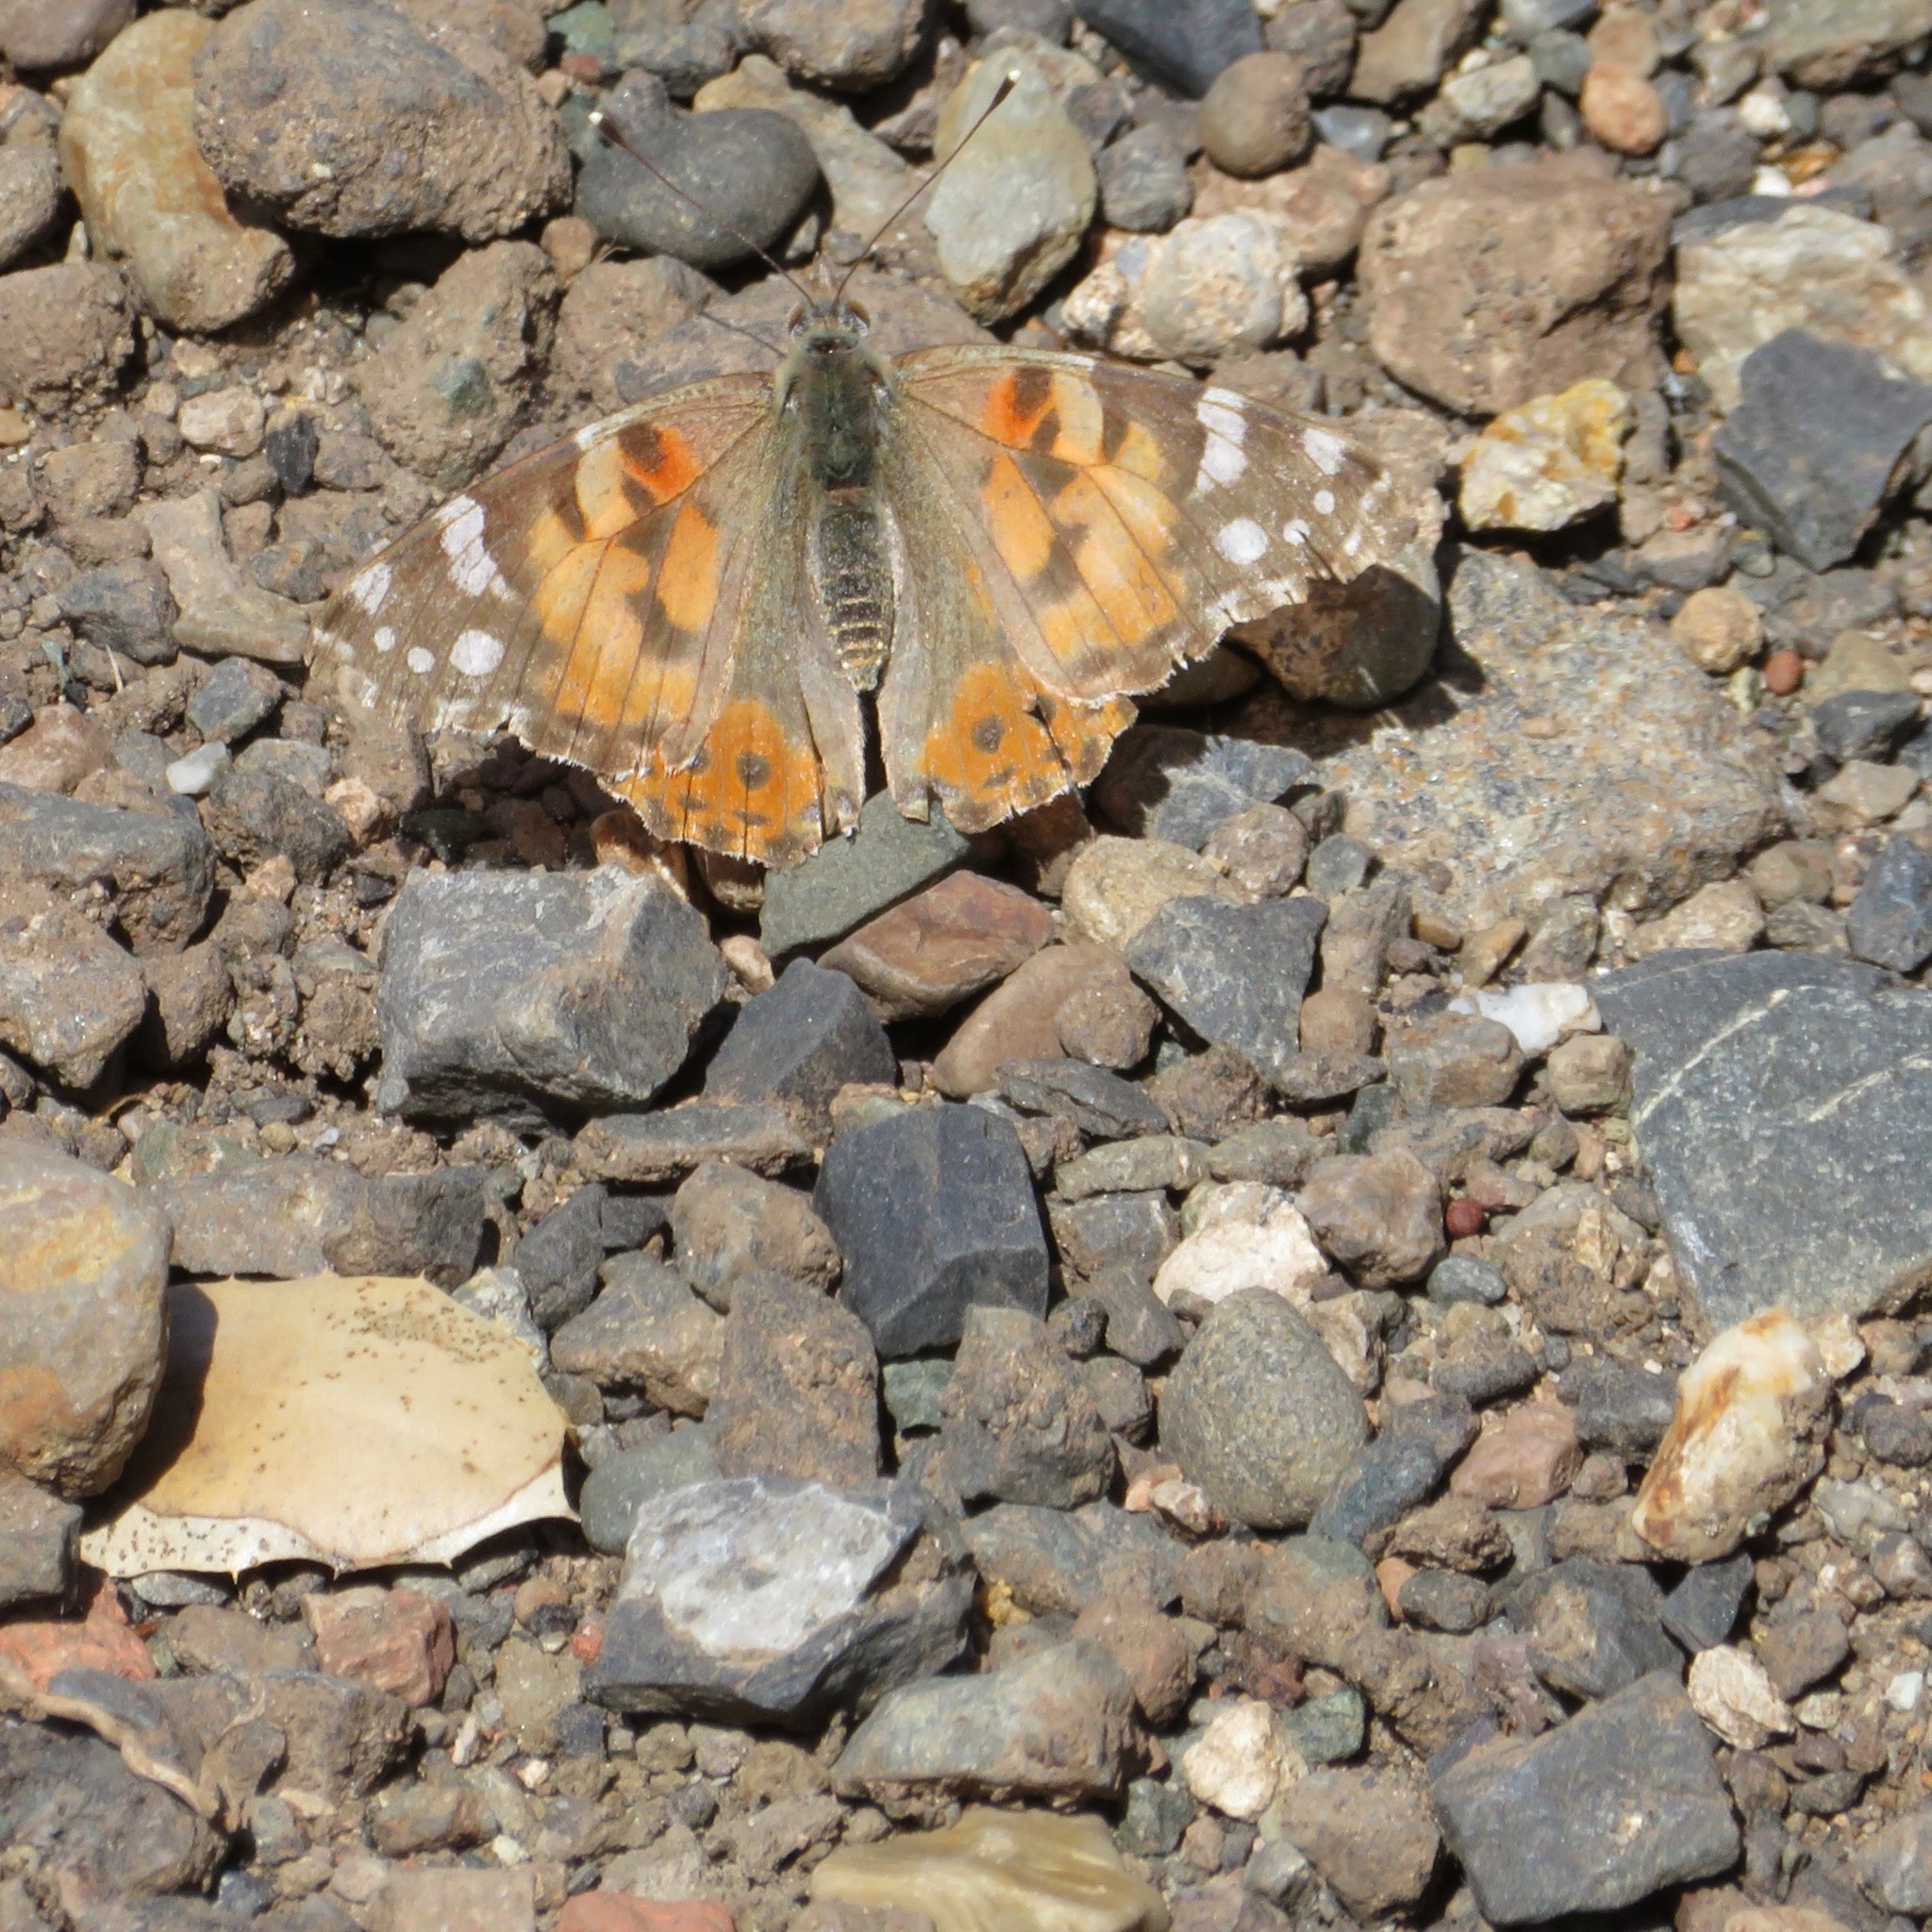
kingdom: Animalia
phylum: Arthropoda
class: Insecta
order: Lepidoptera
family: Nymphalidae
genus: Vanessa
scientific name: Vanessa cardui
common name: Painted lady
